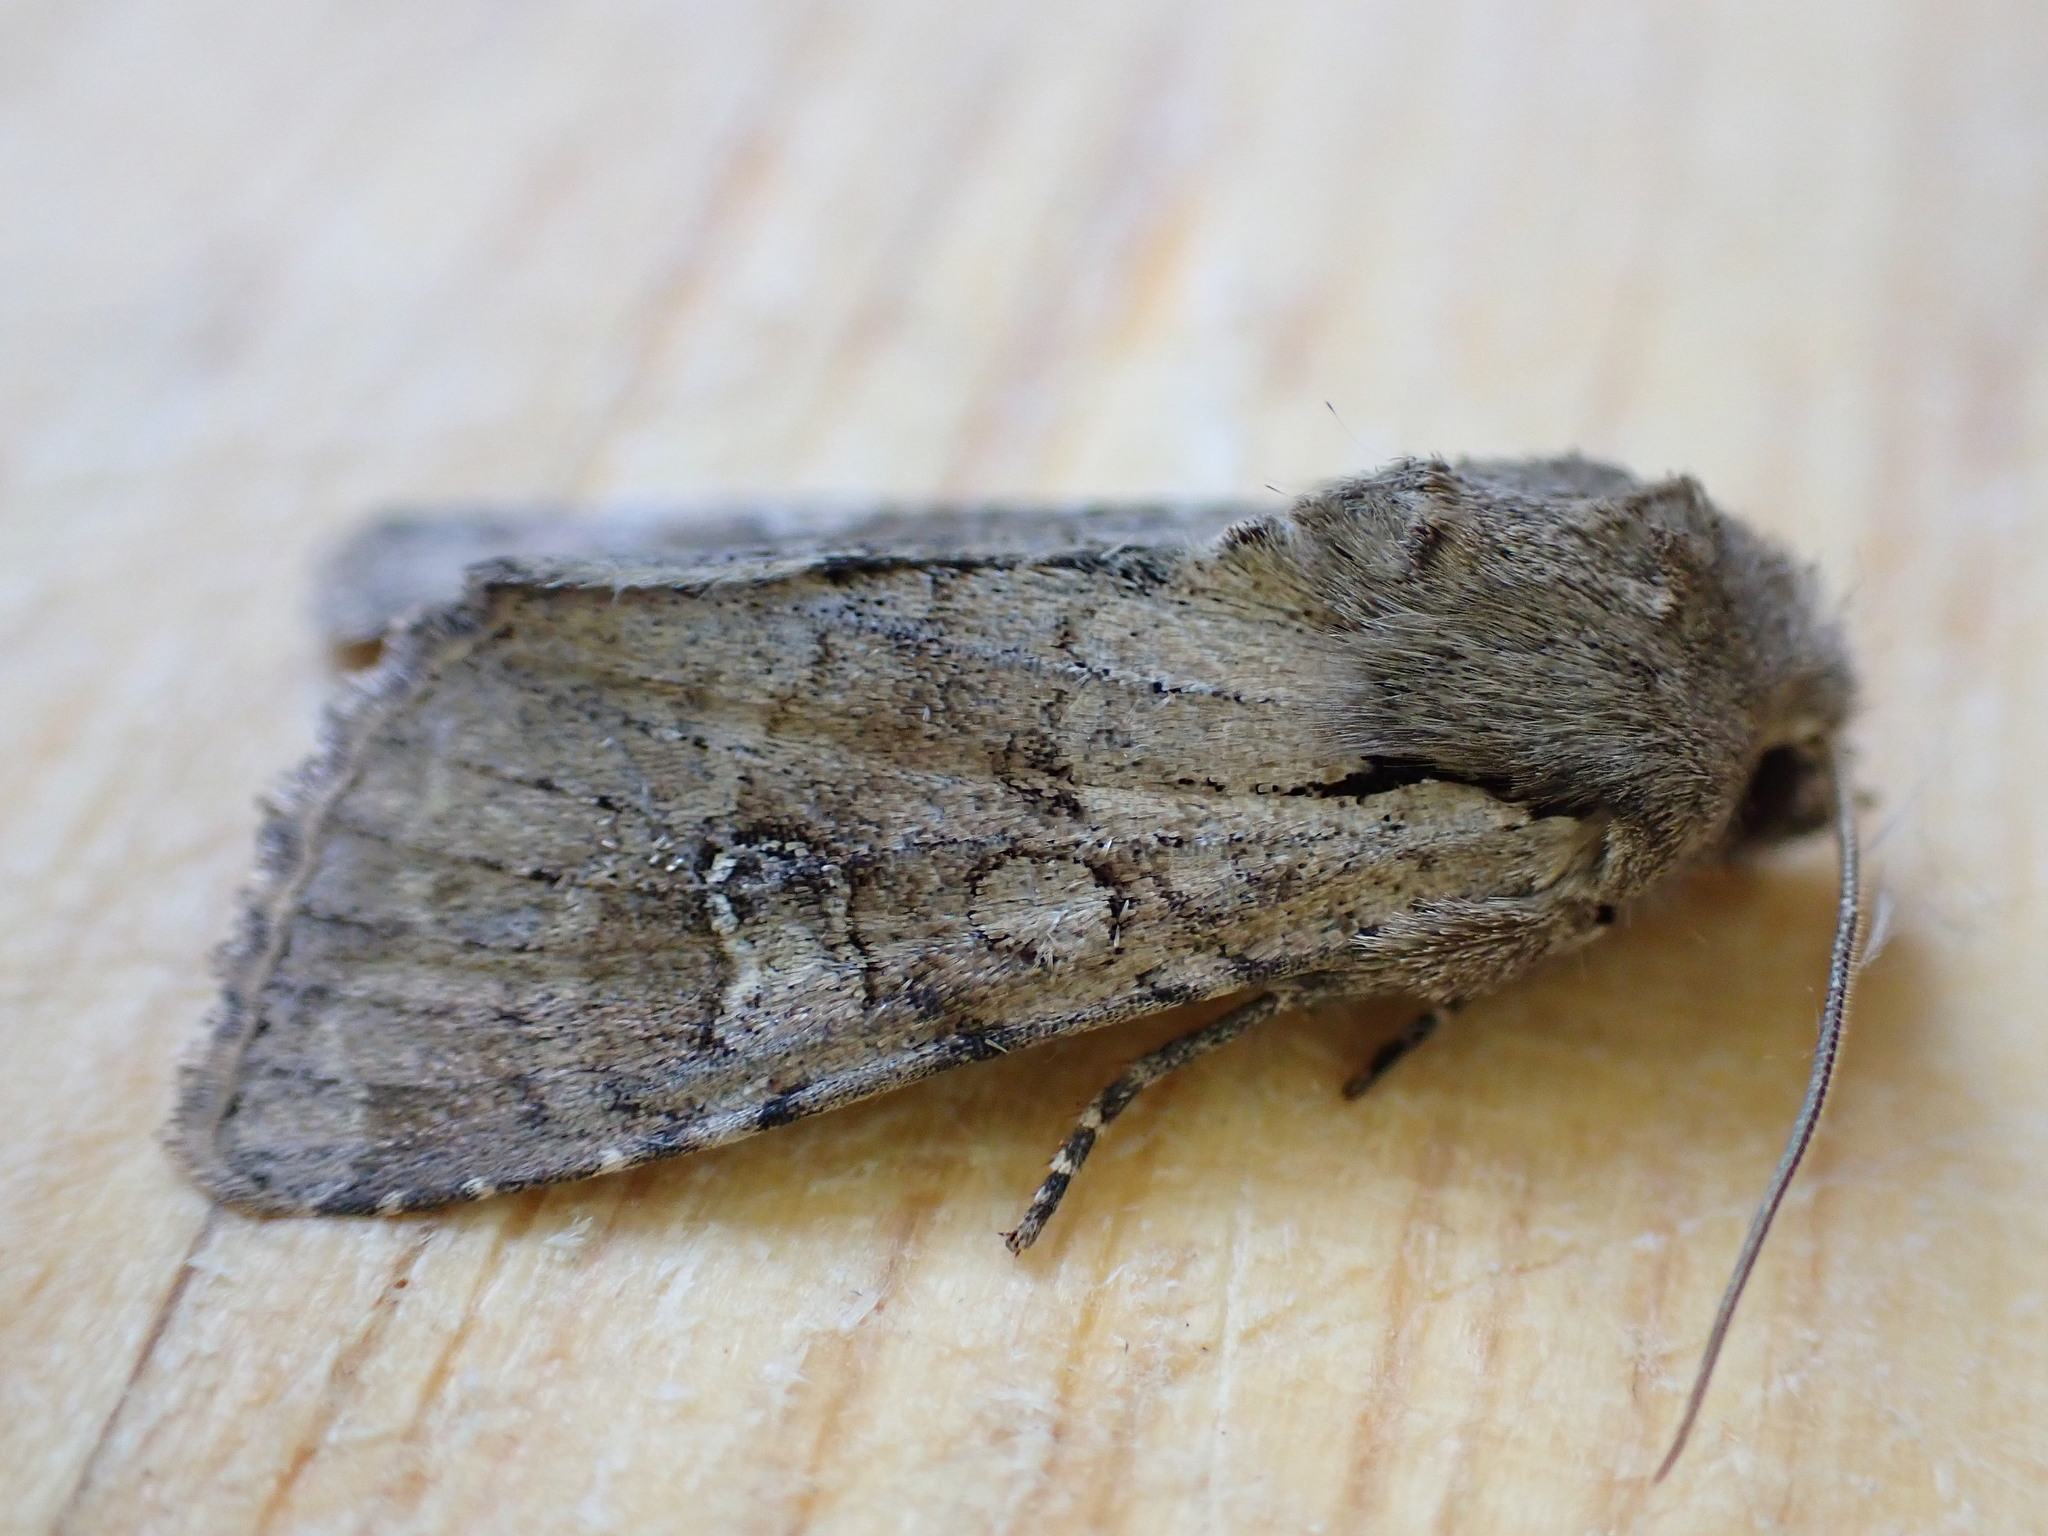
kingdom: Animalia
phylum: Arthropoda
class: Insecta
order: Lepidoptera
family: Noctuidae
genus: Apamea
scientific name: Apamea sordens
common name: Rustic shoulder-knot
